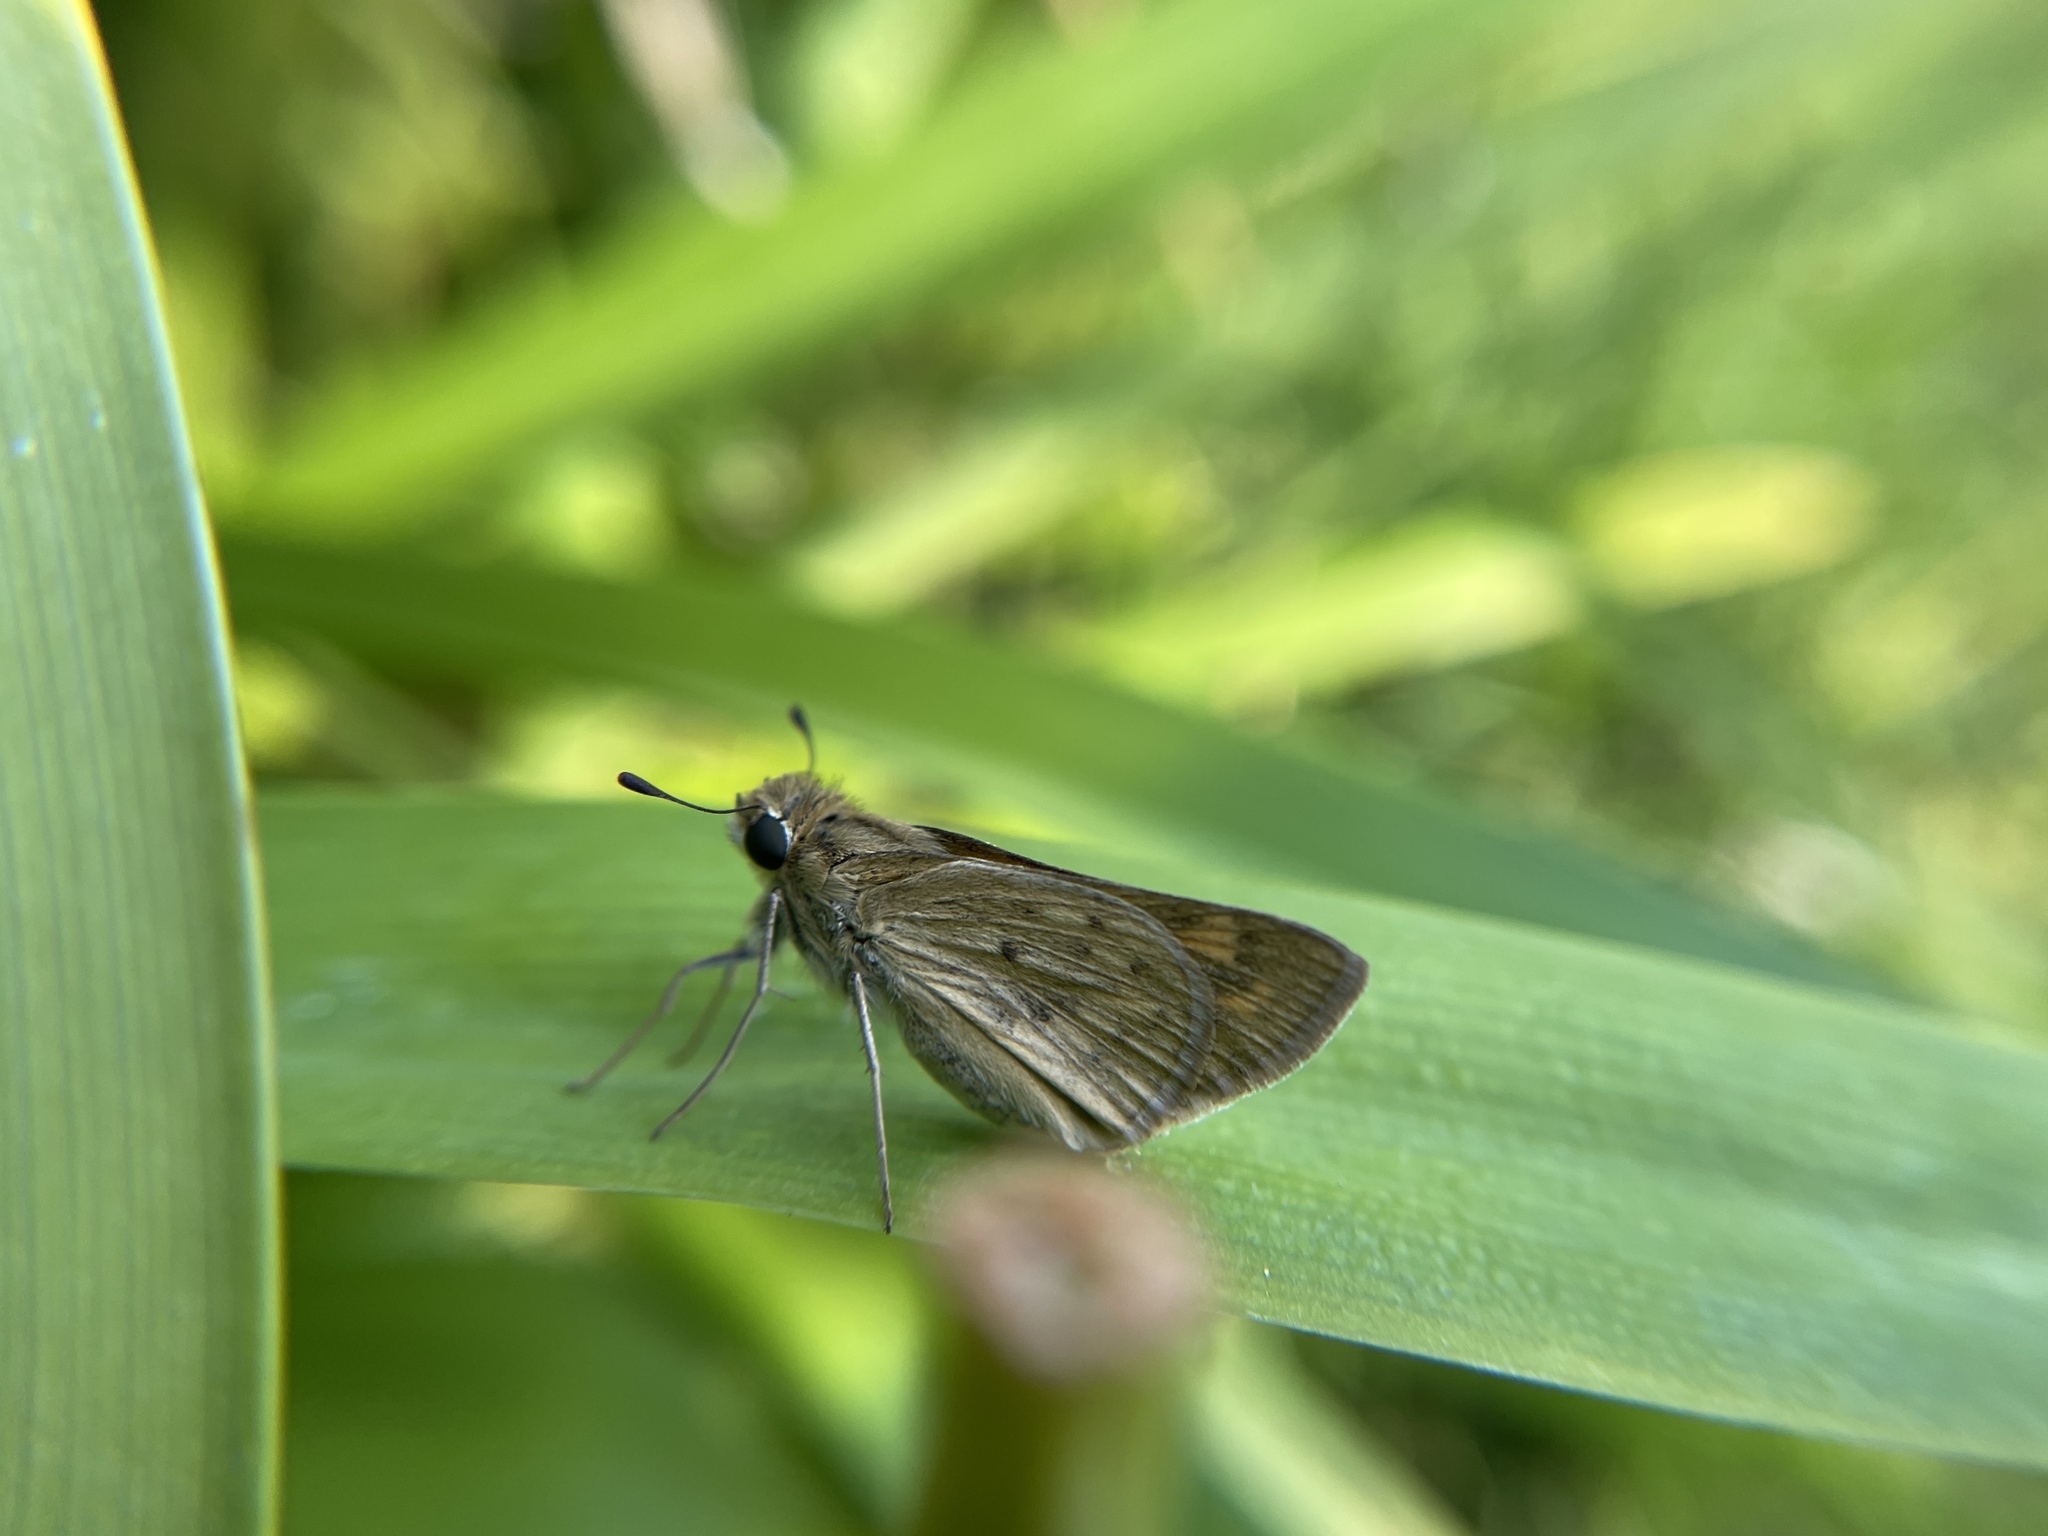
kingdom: Animalia
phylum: Arthropoda
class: Insecta
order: Lepidoptera
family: Hesperiidae
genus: Hylephila
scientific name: Hylephila phyleus
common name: Fiery skipper
